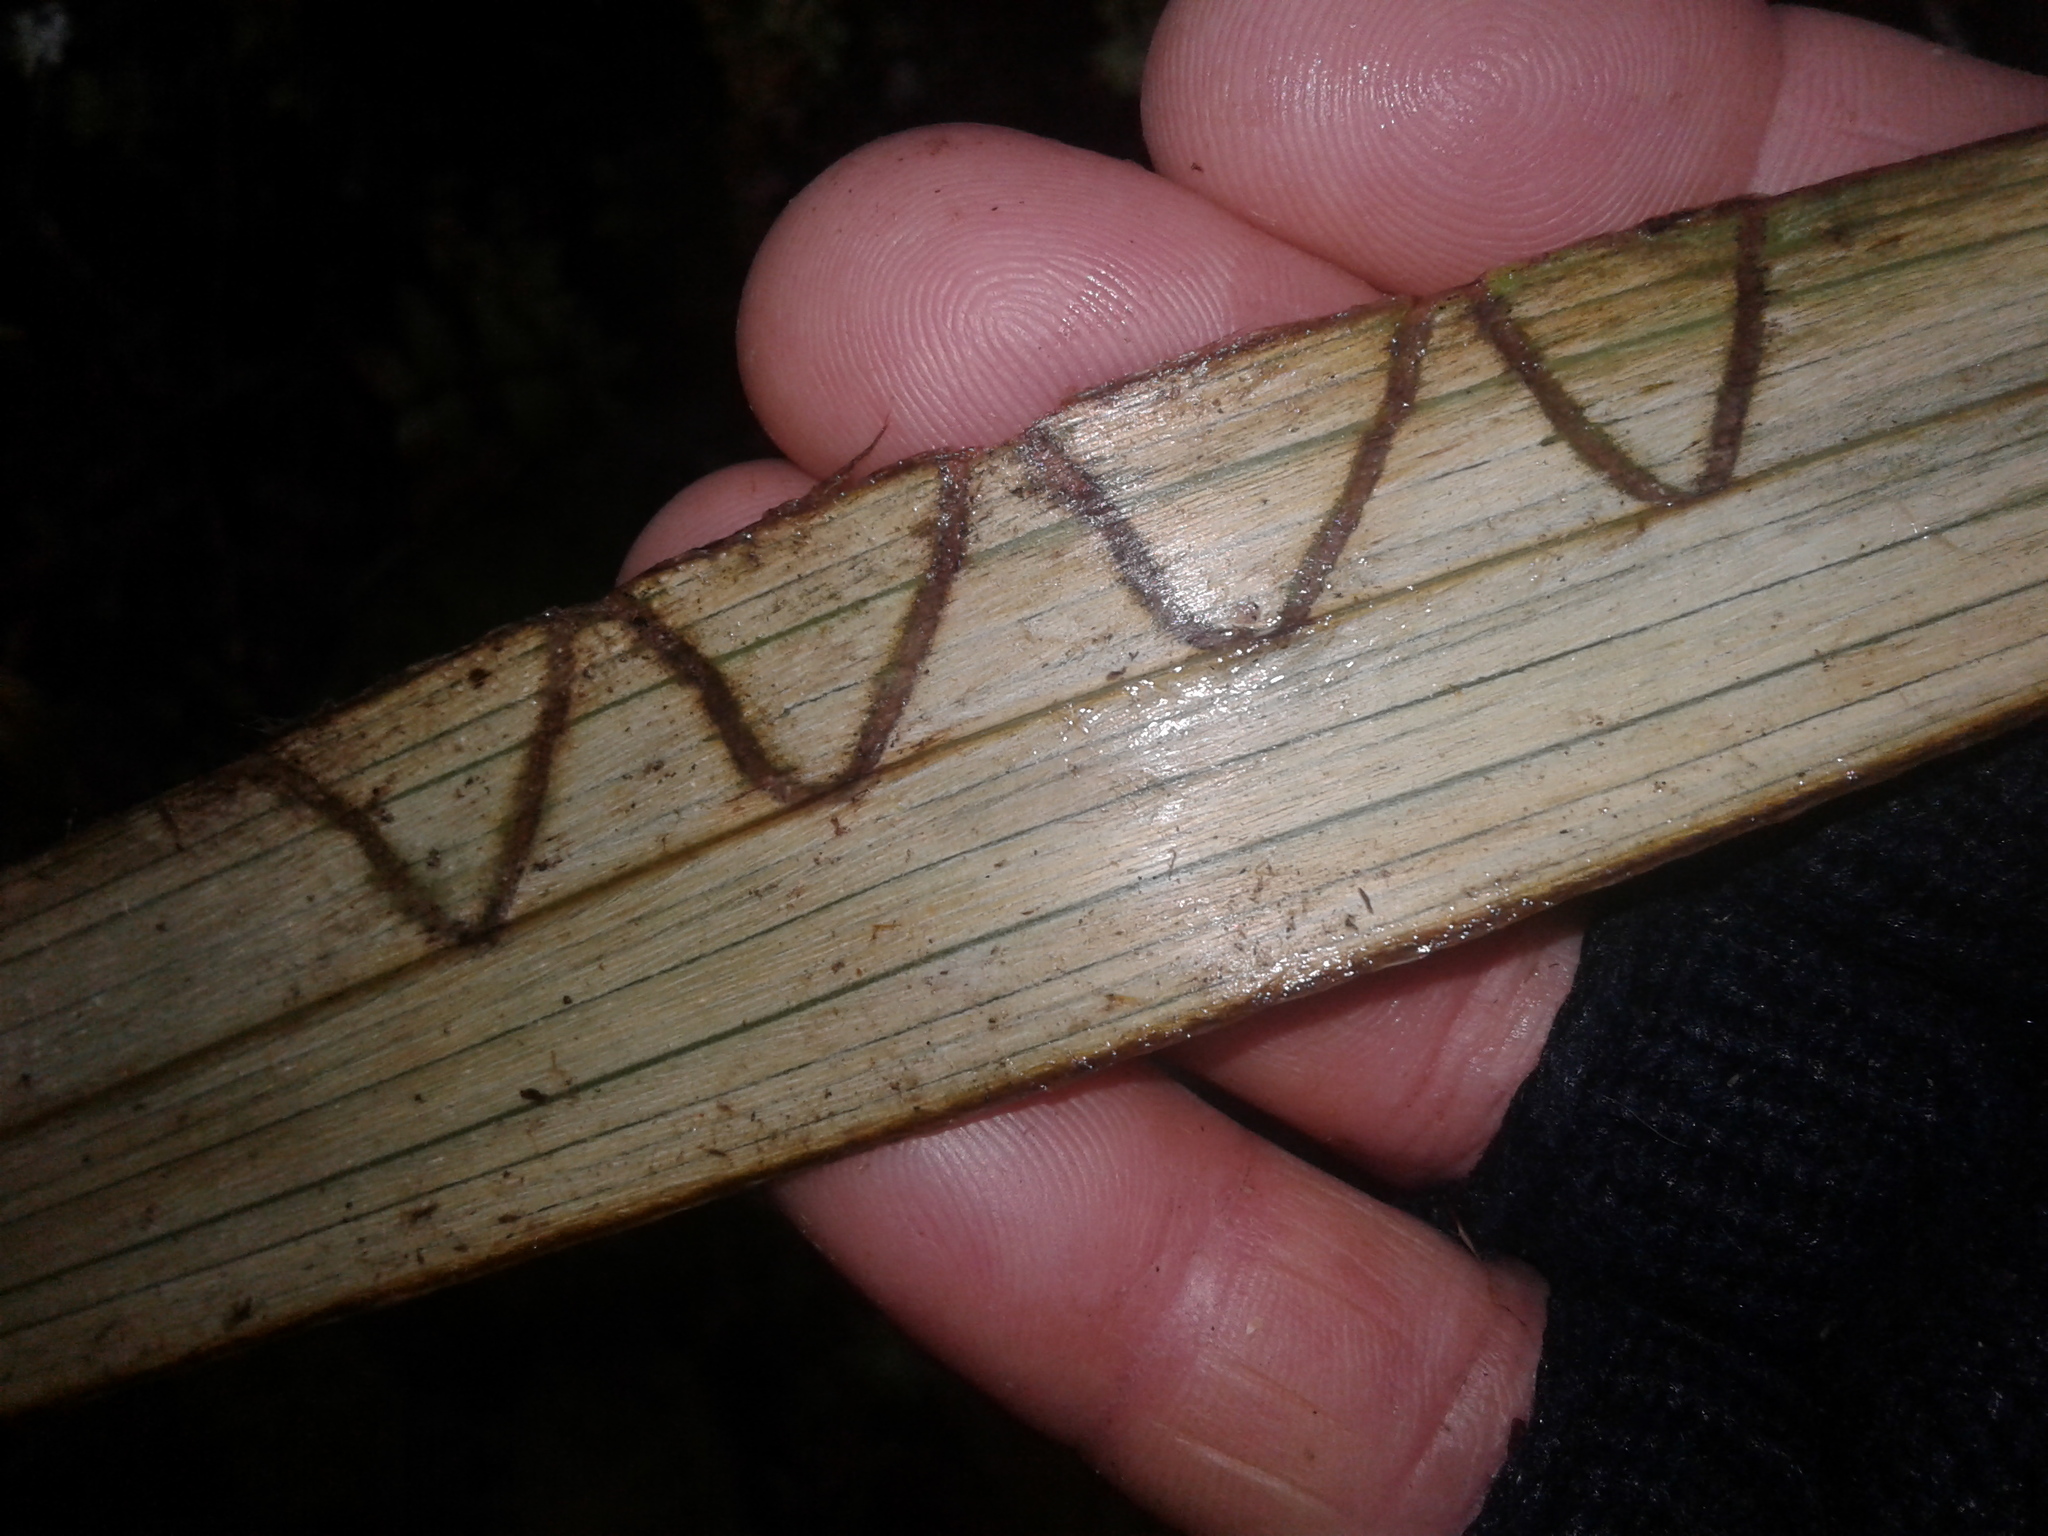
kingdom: Animalia
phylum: Arthropoda
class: Insecta
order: Lepidoptera
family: Plutellidae
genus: Charixena
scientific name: Charixena iridoxa
